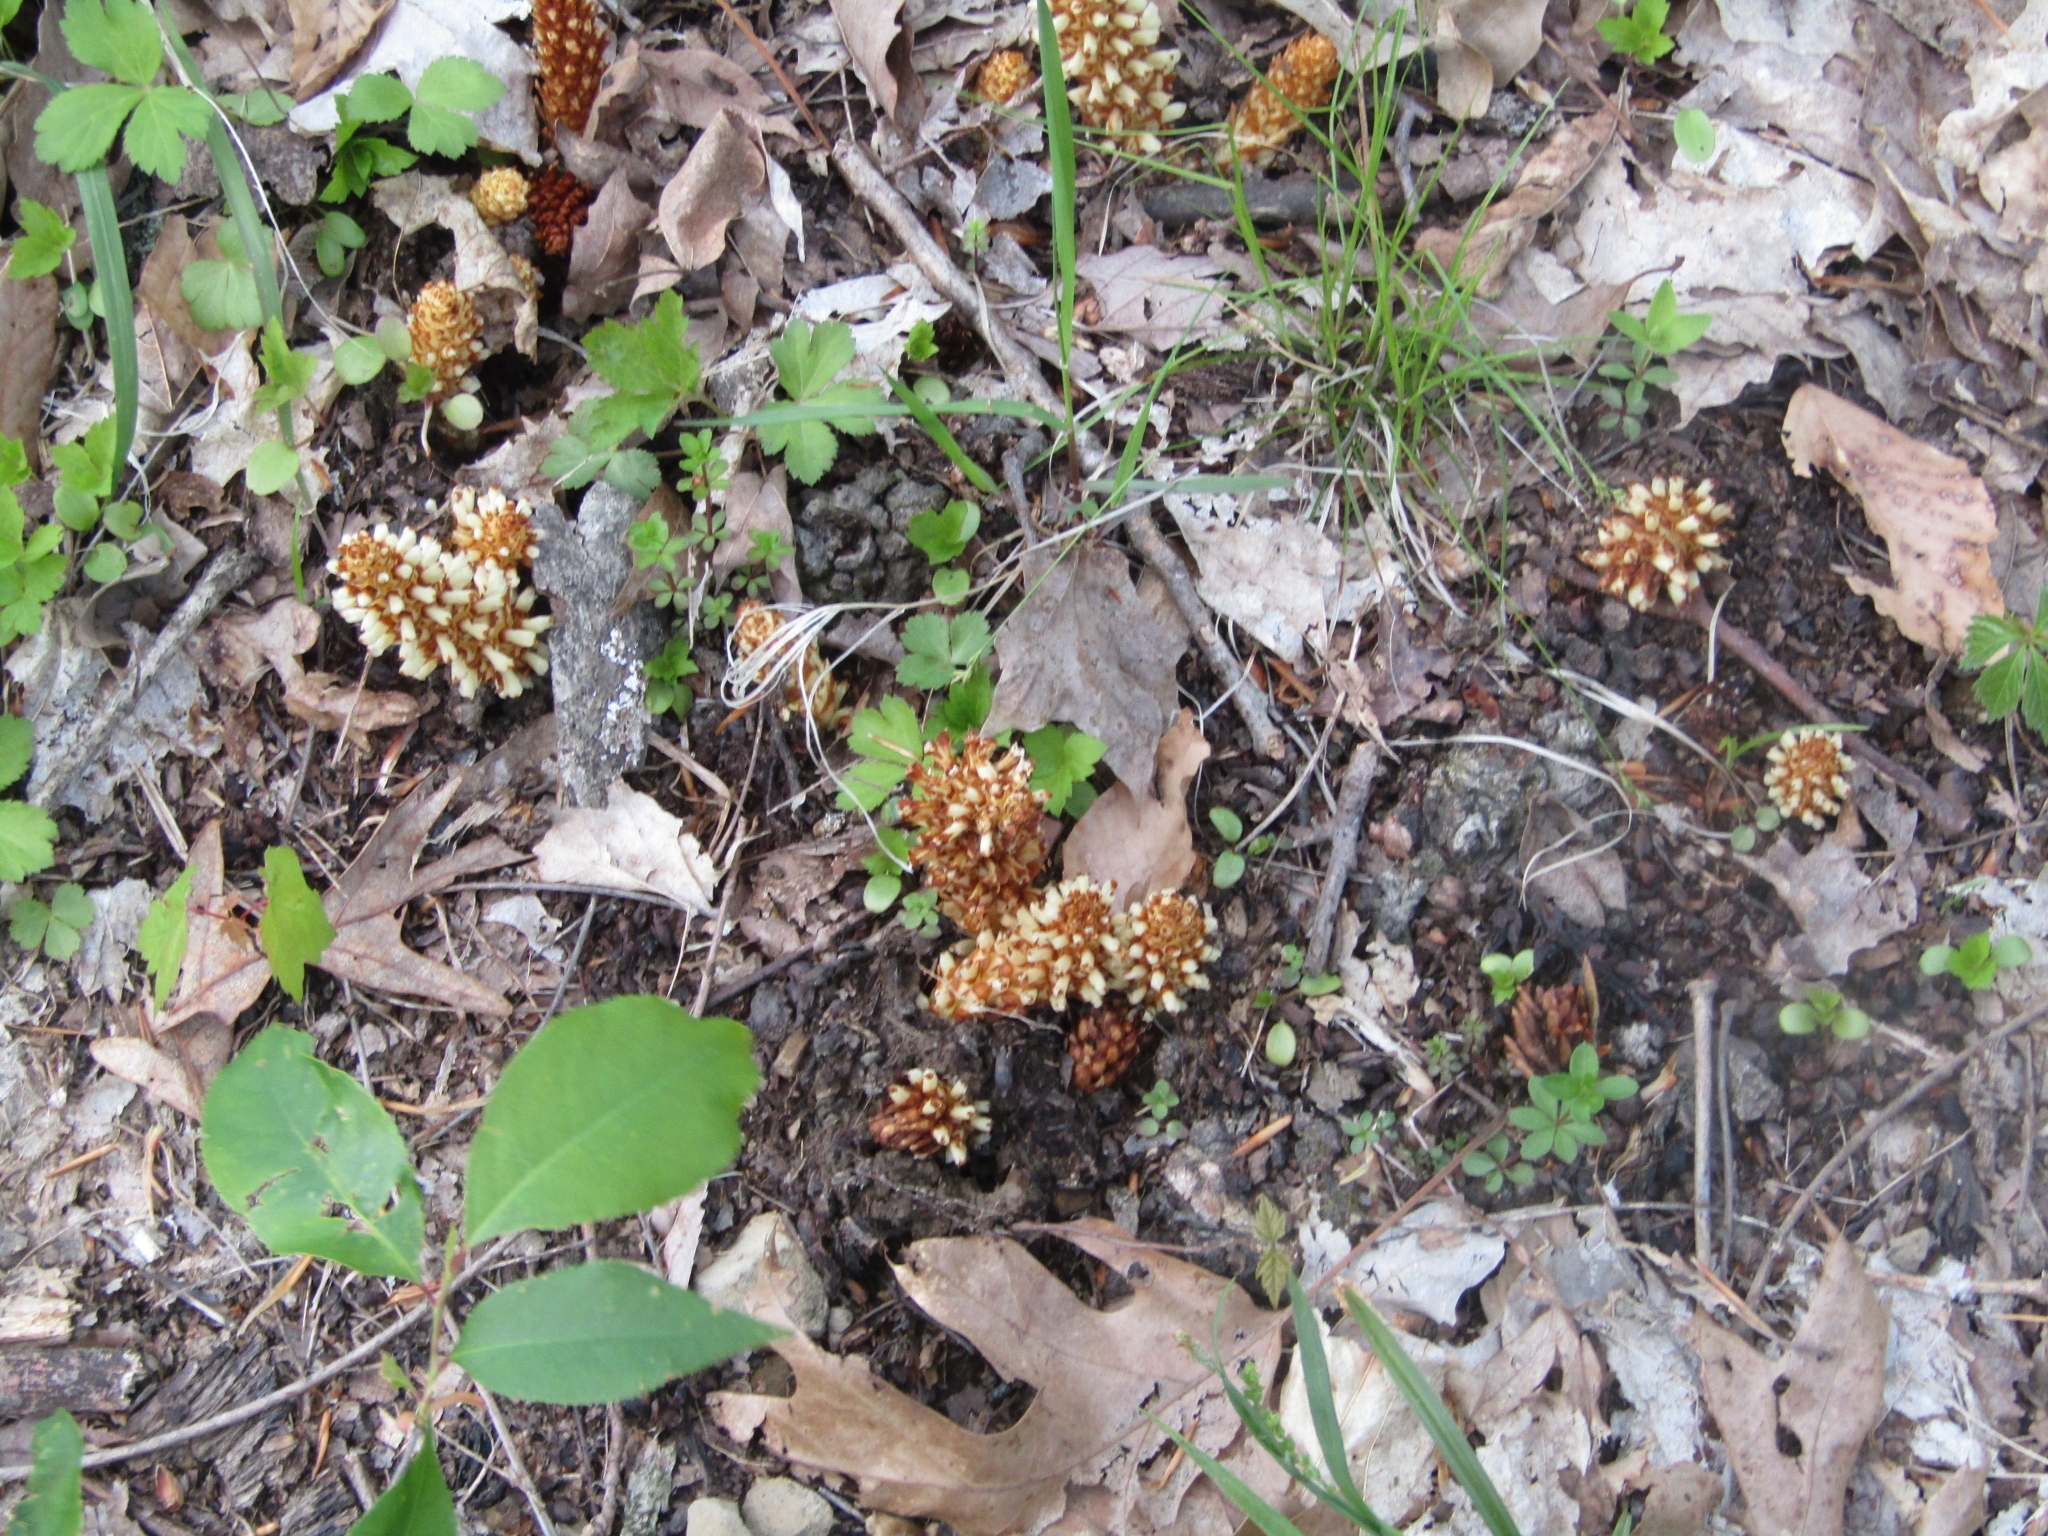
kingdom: Plantae
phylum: Tracheophyta
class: Magnoliopsida
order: Lamiales
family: Orobanchaceae
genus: Conopholis
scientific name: Conopholis americana
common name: American cancer-root
